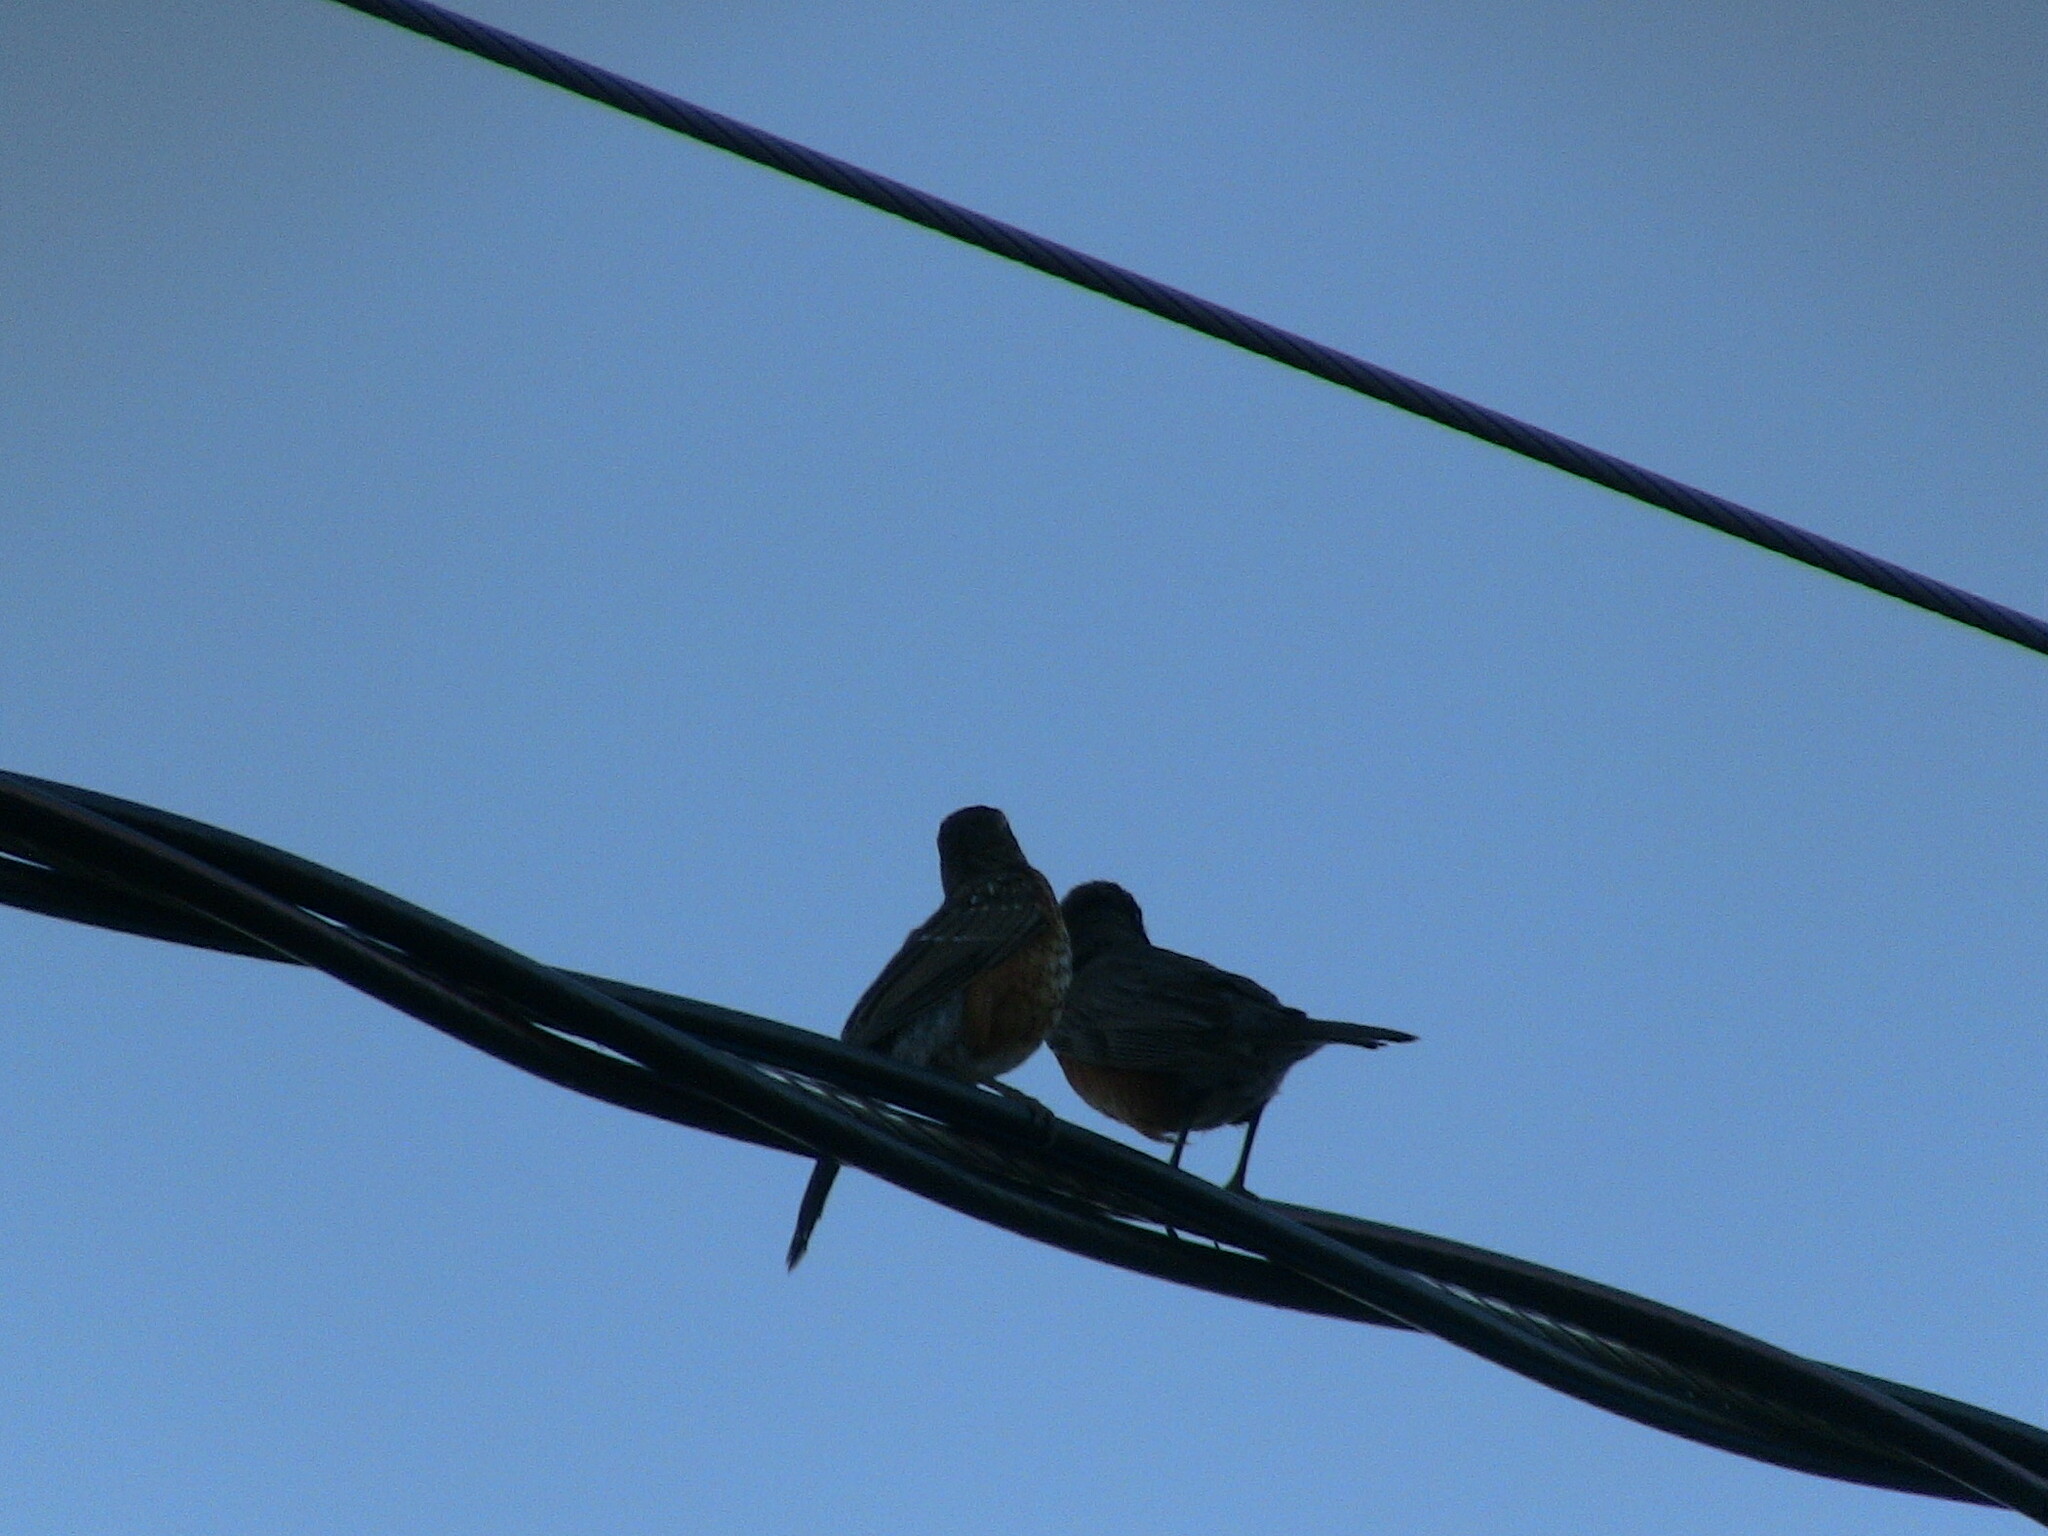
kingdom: Animalia
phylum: Chordata
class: Aves
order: Passeriformes
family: Turdidae
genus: Turdus
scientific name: Turdus migratorius
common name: American robin
